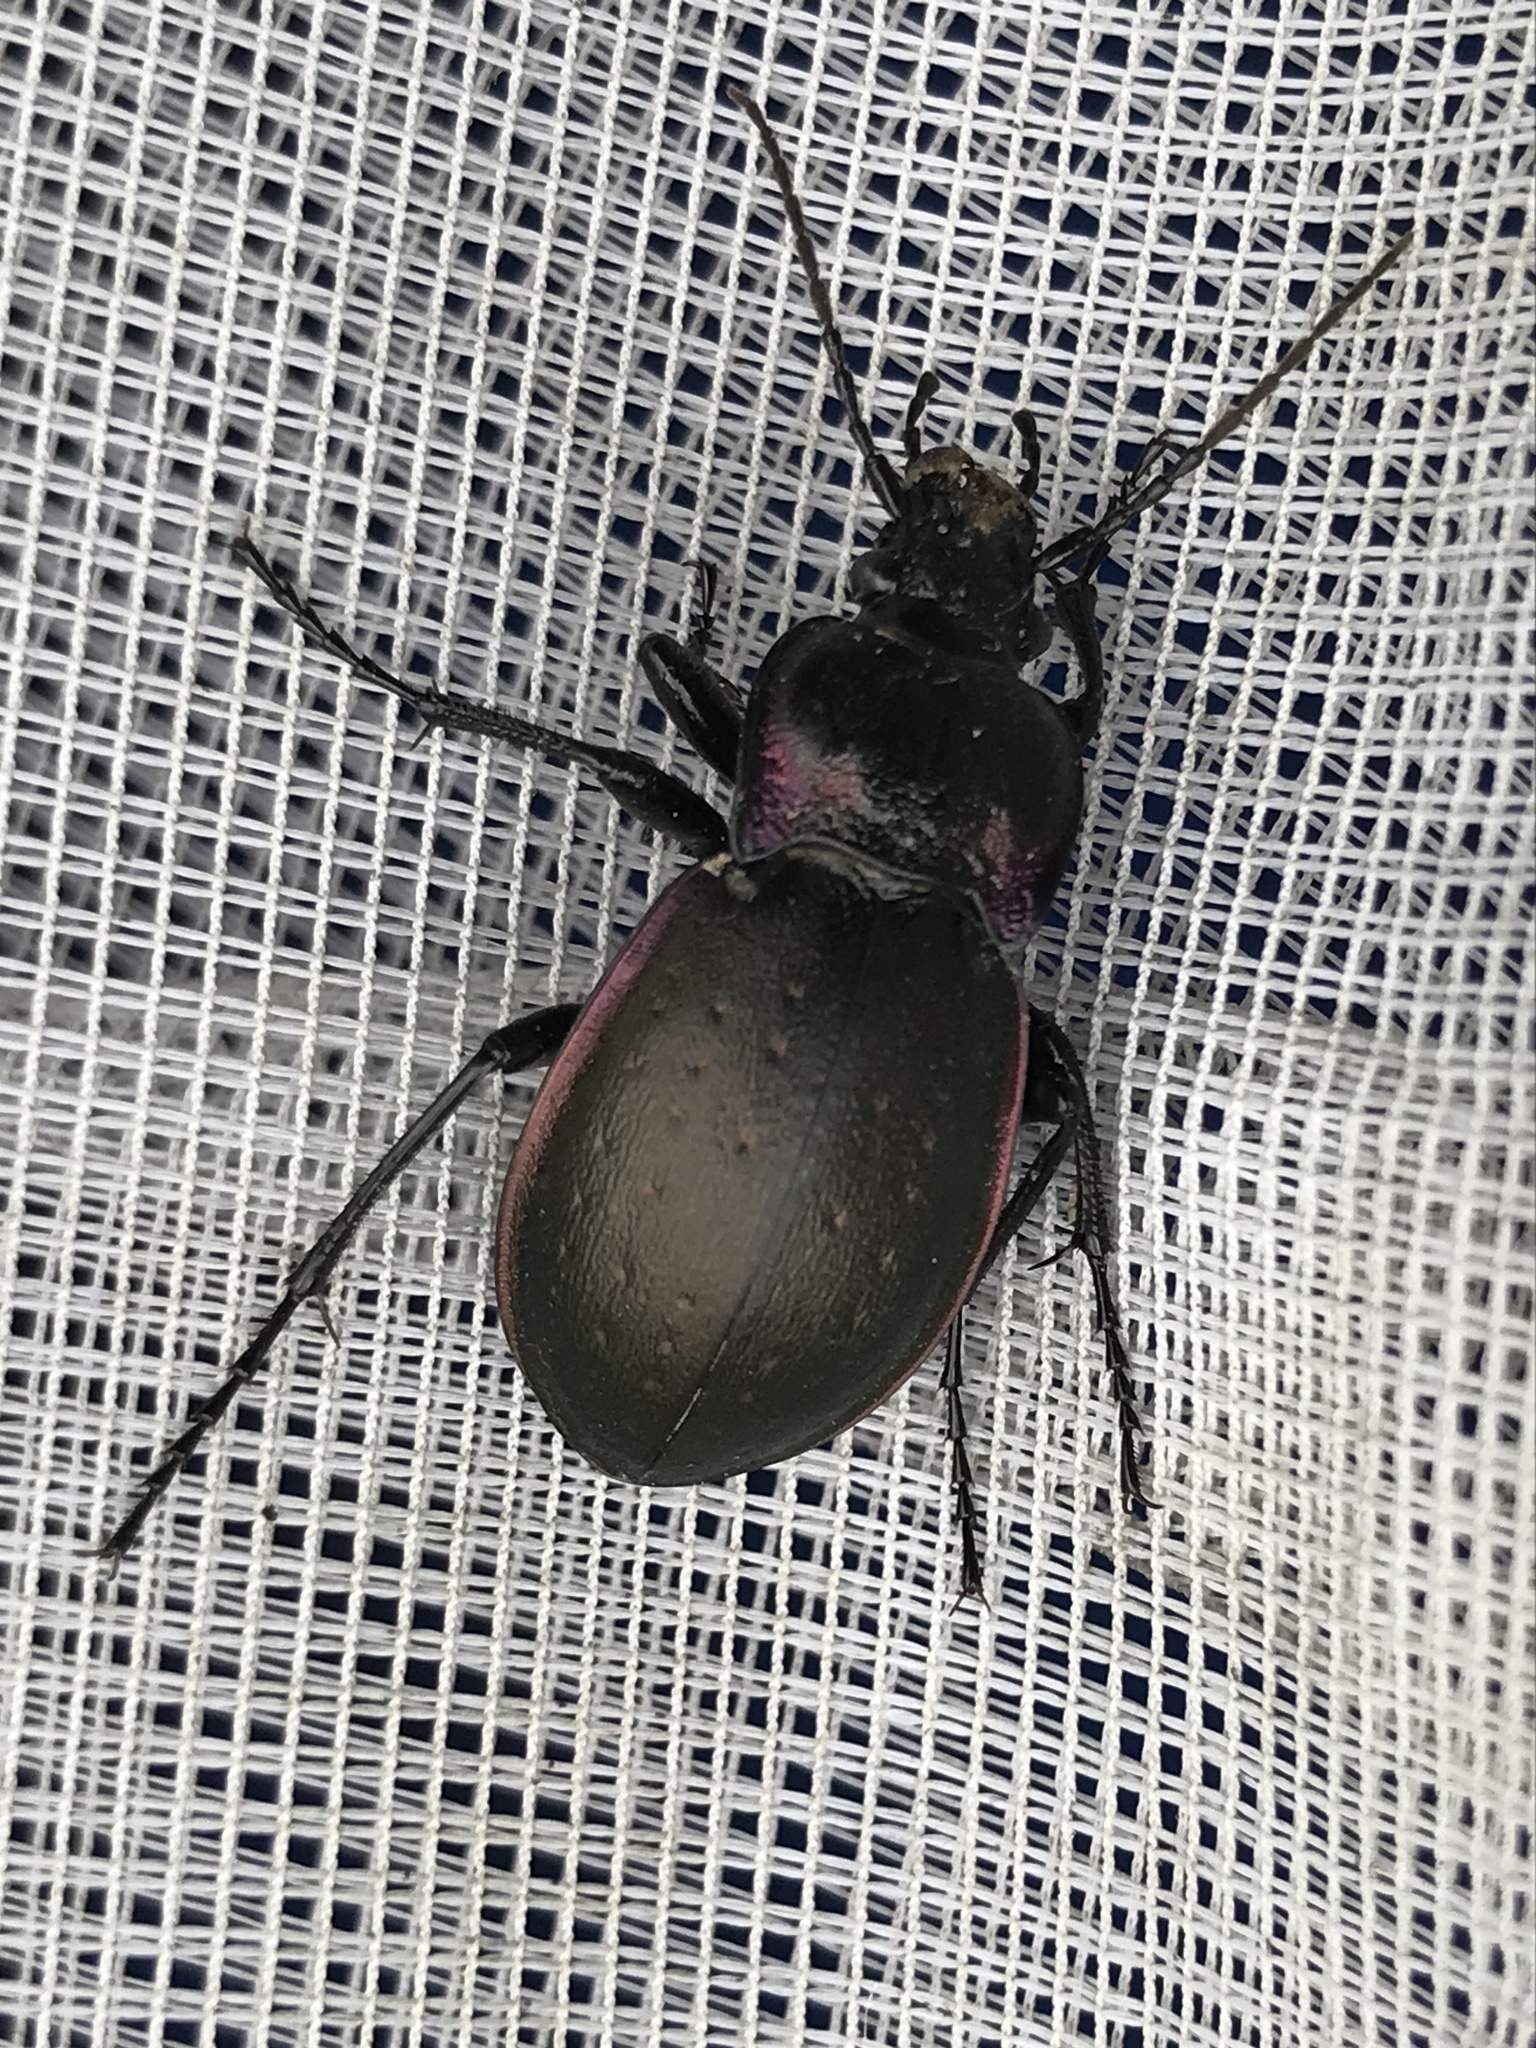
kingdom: Animalia
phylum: Arthropoda
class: Insecta
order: Coleoptera
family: Carabidae
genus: Carabus
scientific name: Carabus nemoralis
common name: European ground beetle
